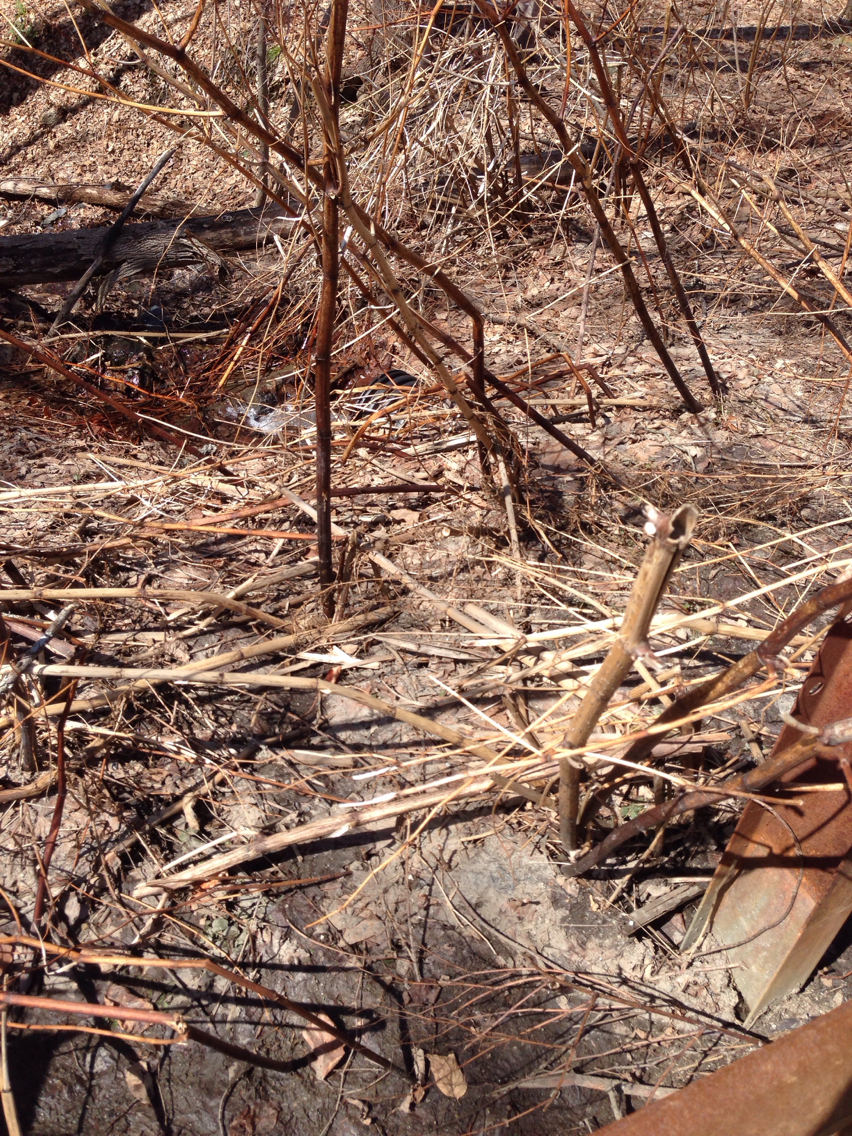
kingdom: Plantae
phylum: Tracheophyta
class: Magnoliopsida
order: Caryophyllales
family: Polygonaceae
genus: Reynoutria
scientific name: Reynoutria japonica
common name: Japanese knotweed
